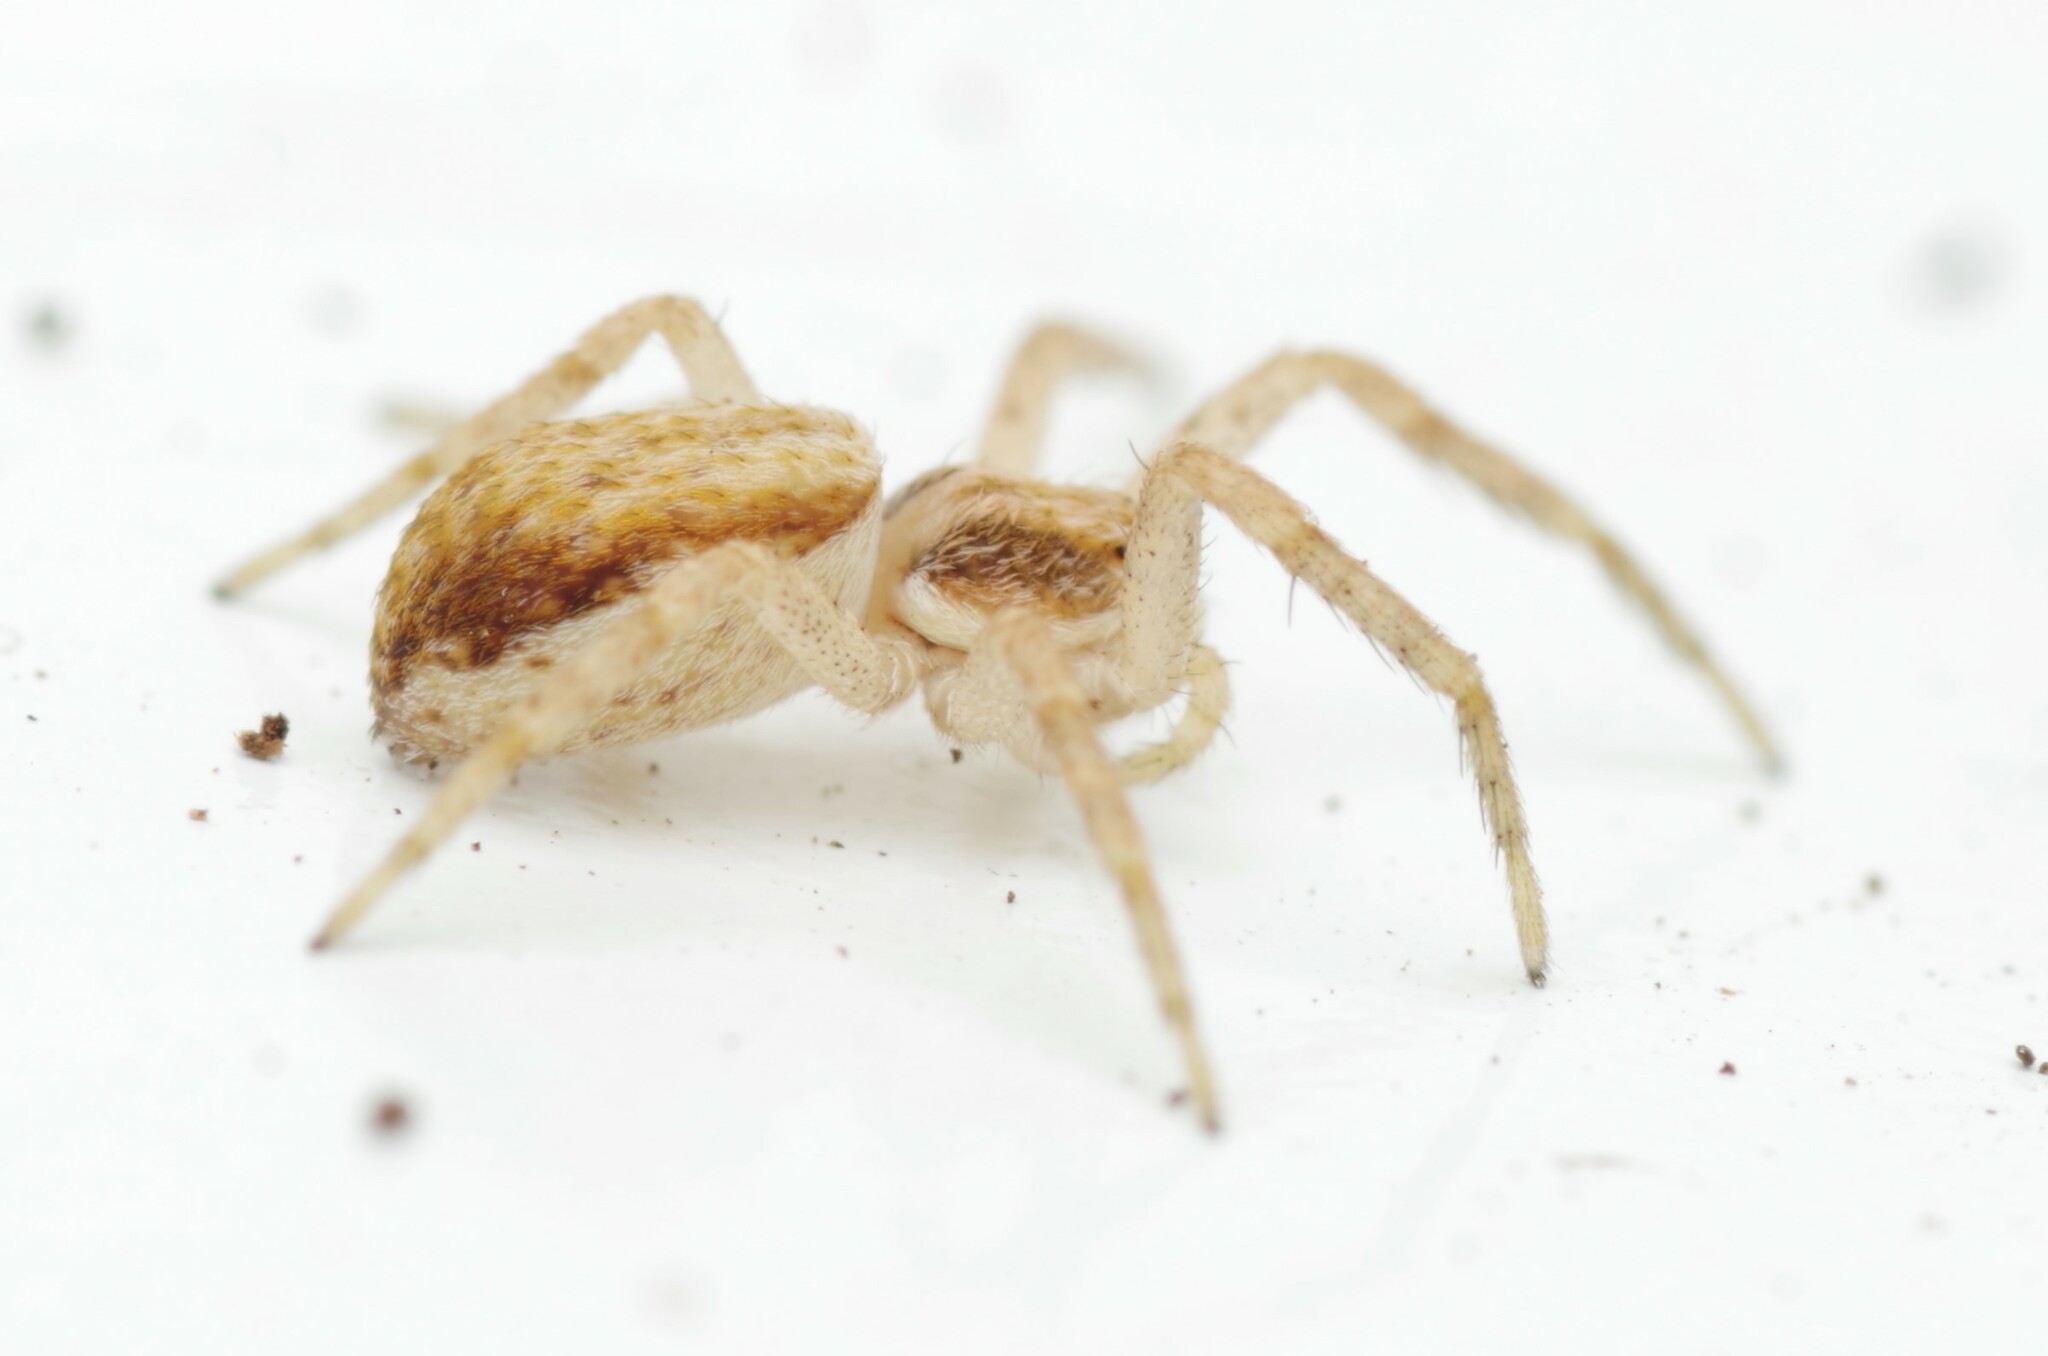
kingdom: Animalia
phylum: Arthropoda
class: Arachnida
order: Araneae
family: Philodromidae
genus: Philodromus
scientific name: Philodromus dispar
